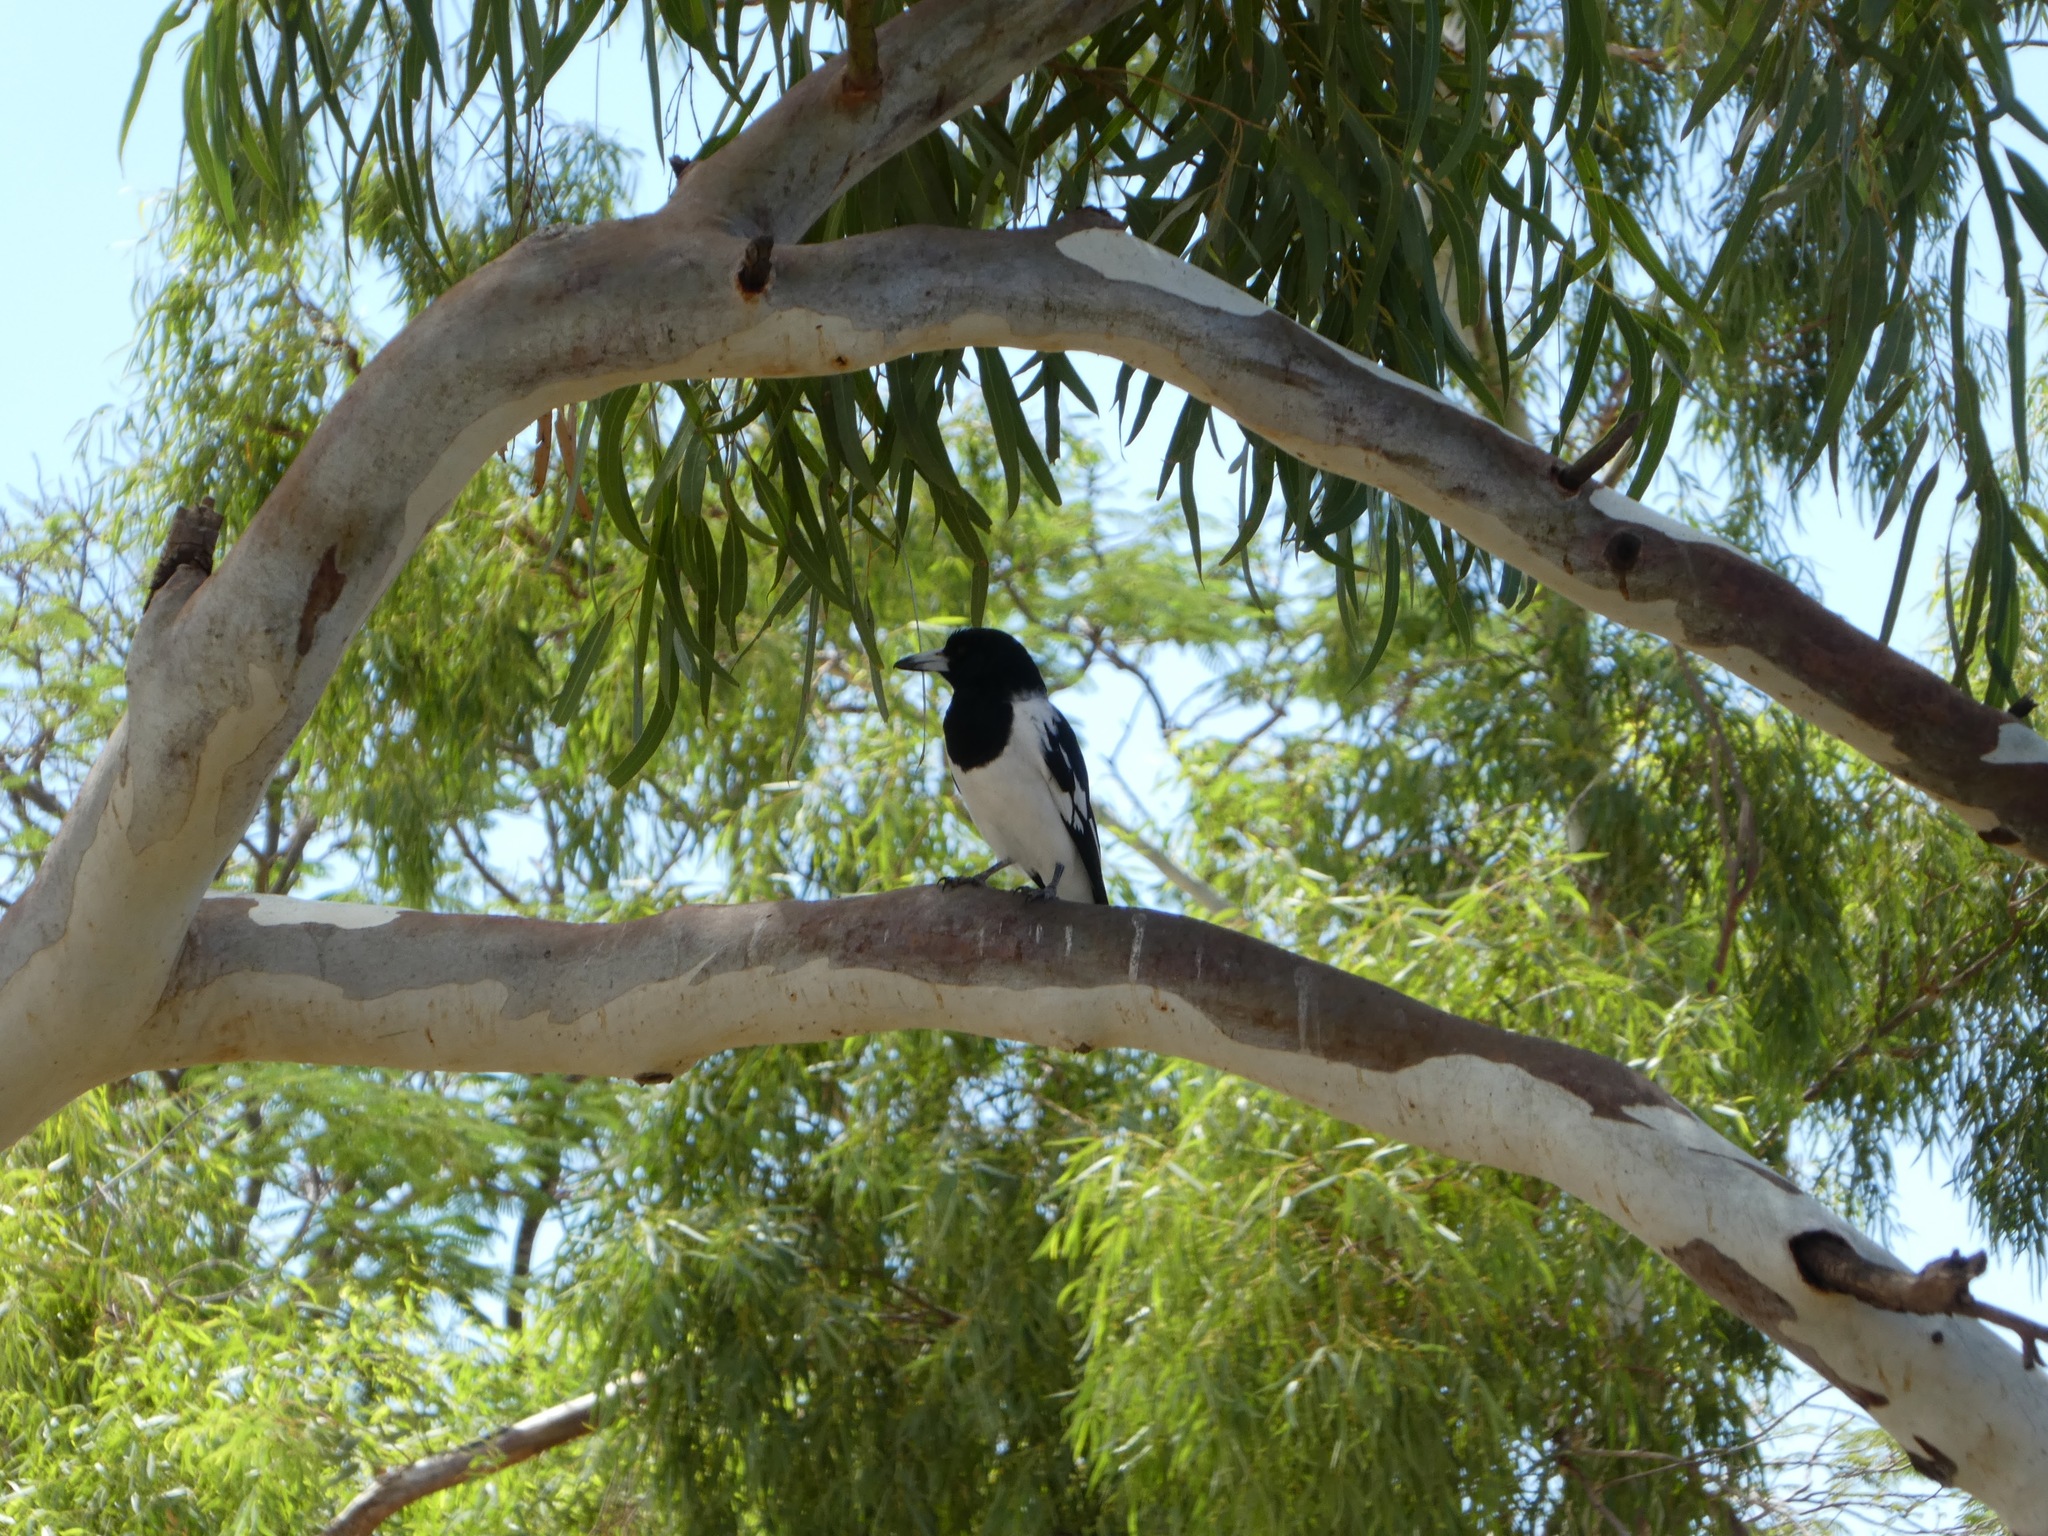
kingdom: Animalia
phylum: Chordata
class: Aves
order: Passeriformes
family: Cracticidae
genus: Cracticus
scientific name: Cracticus nigrogularis
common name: Pied butcherbird
